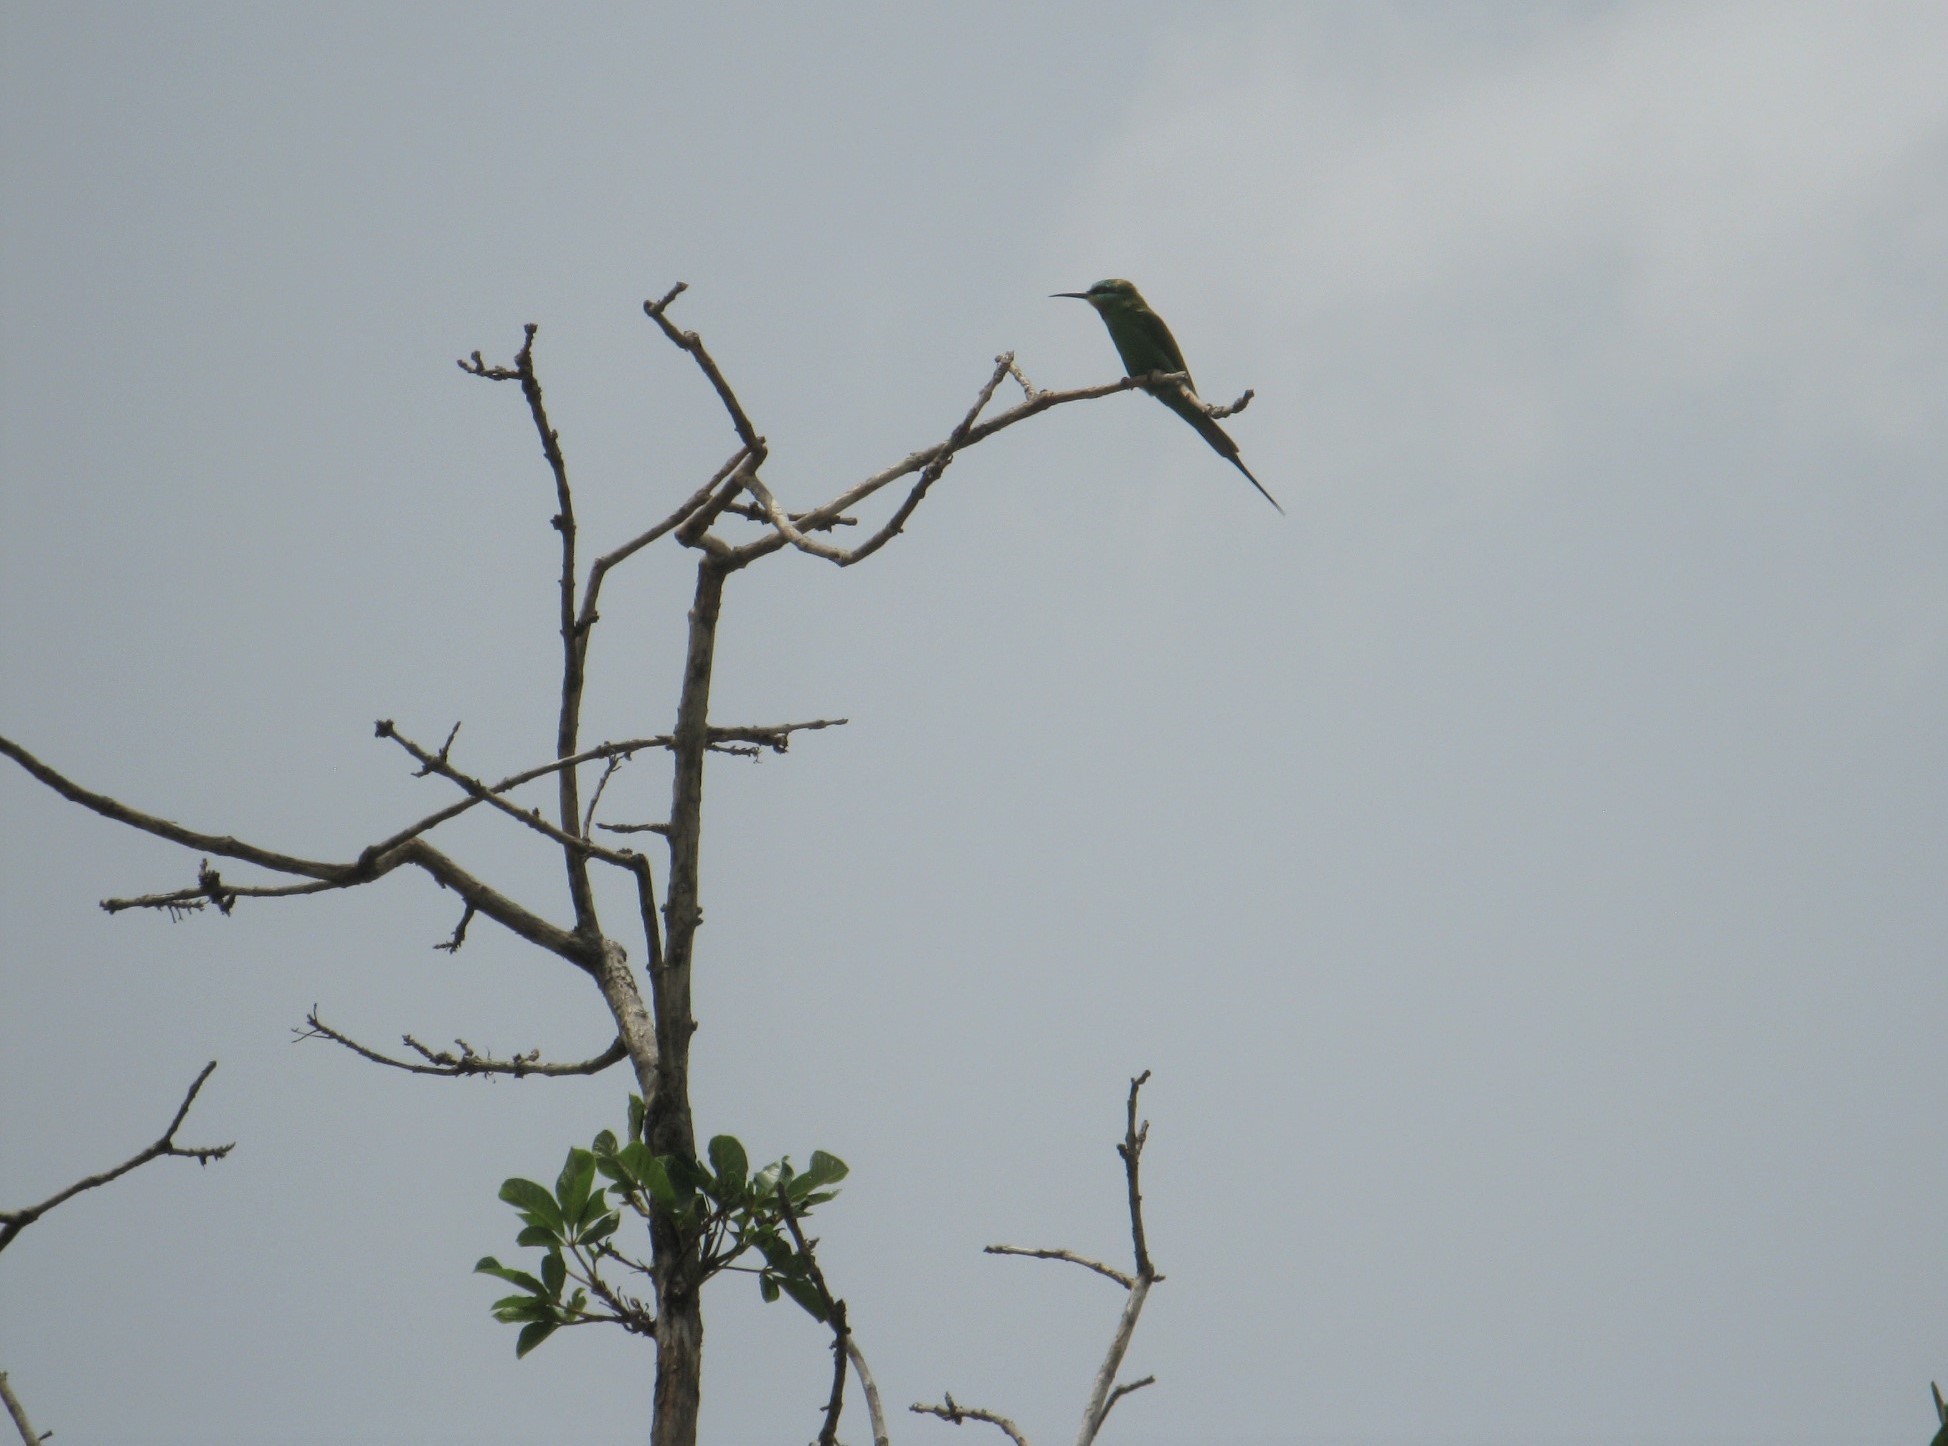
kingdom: Animalia
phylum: Chordata
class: Aves
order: Coraciiformes
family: Meropidae
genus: Merops
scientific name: Merops persicus
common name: Blue-cheeked bee-eater
